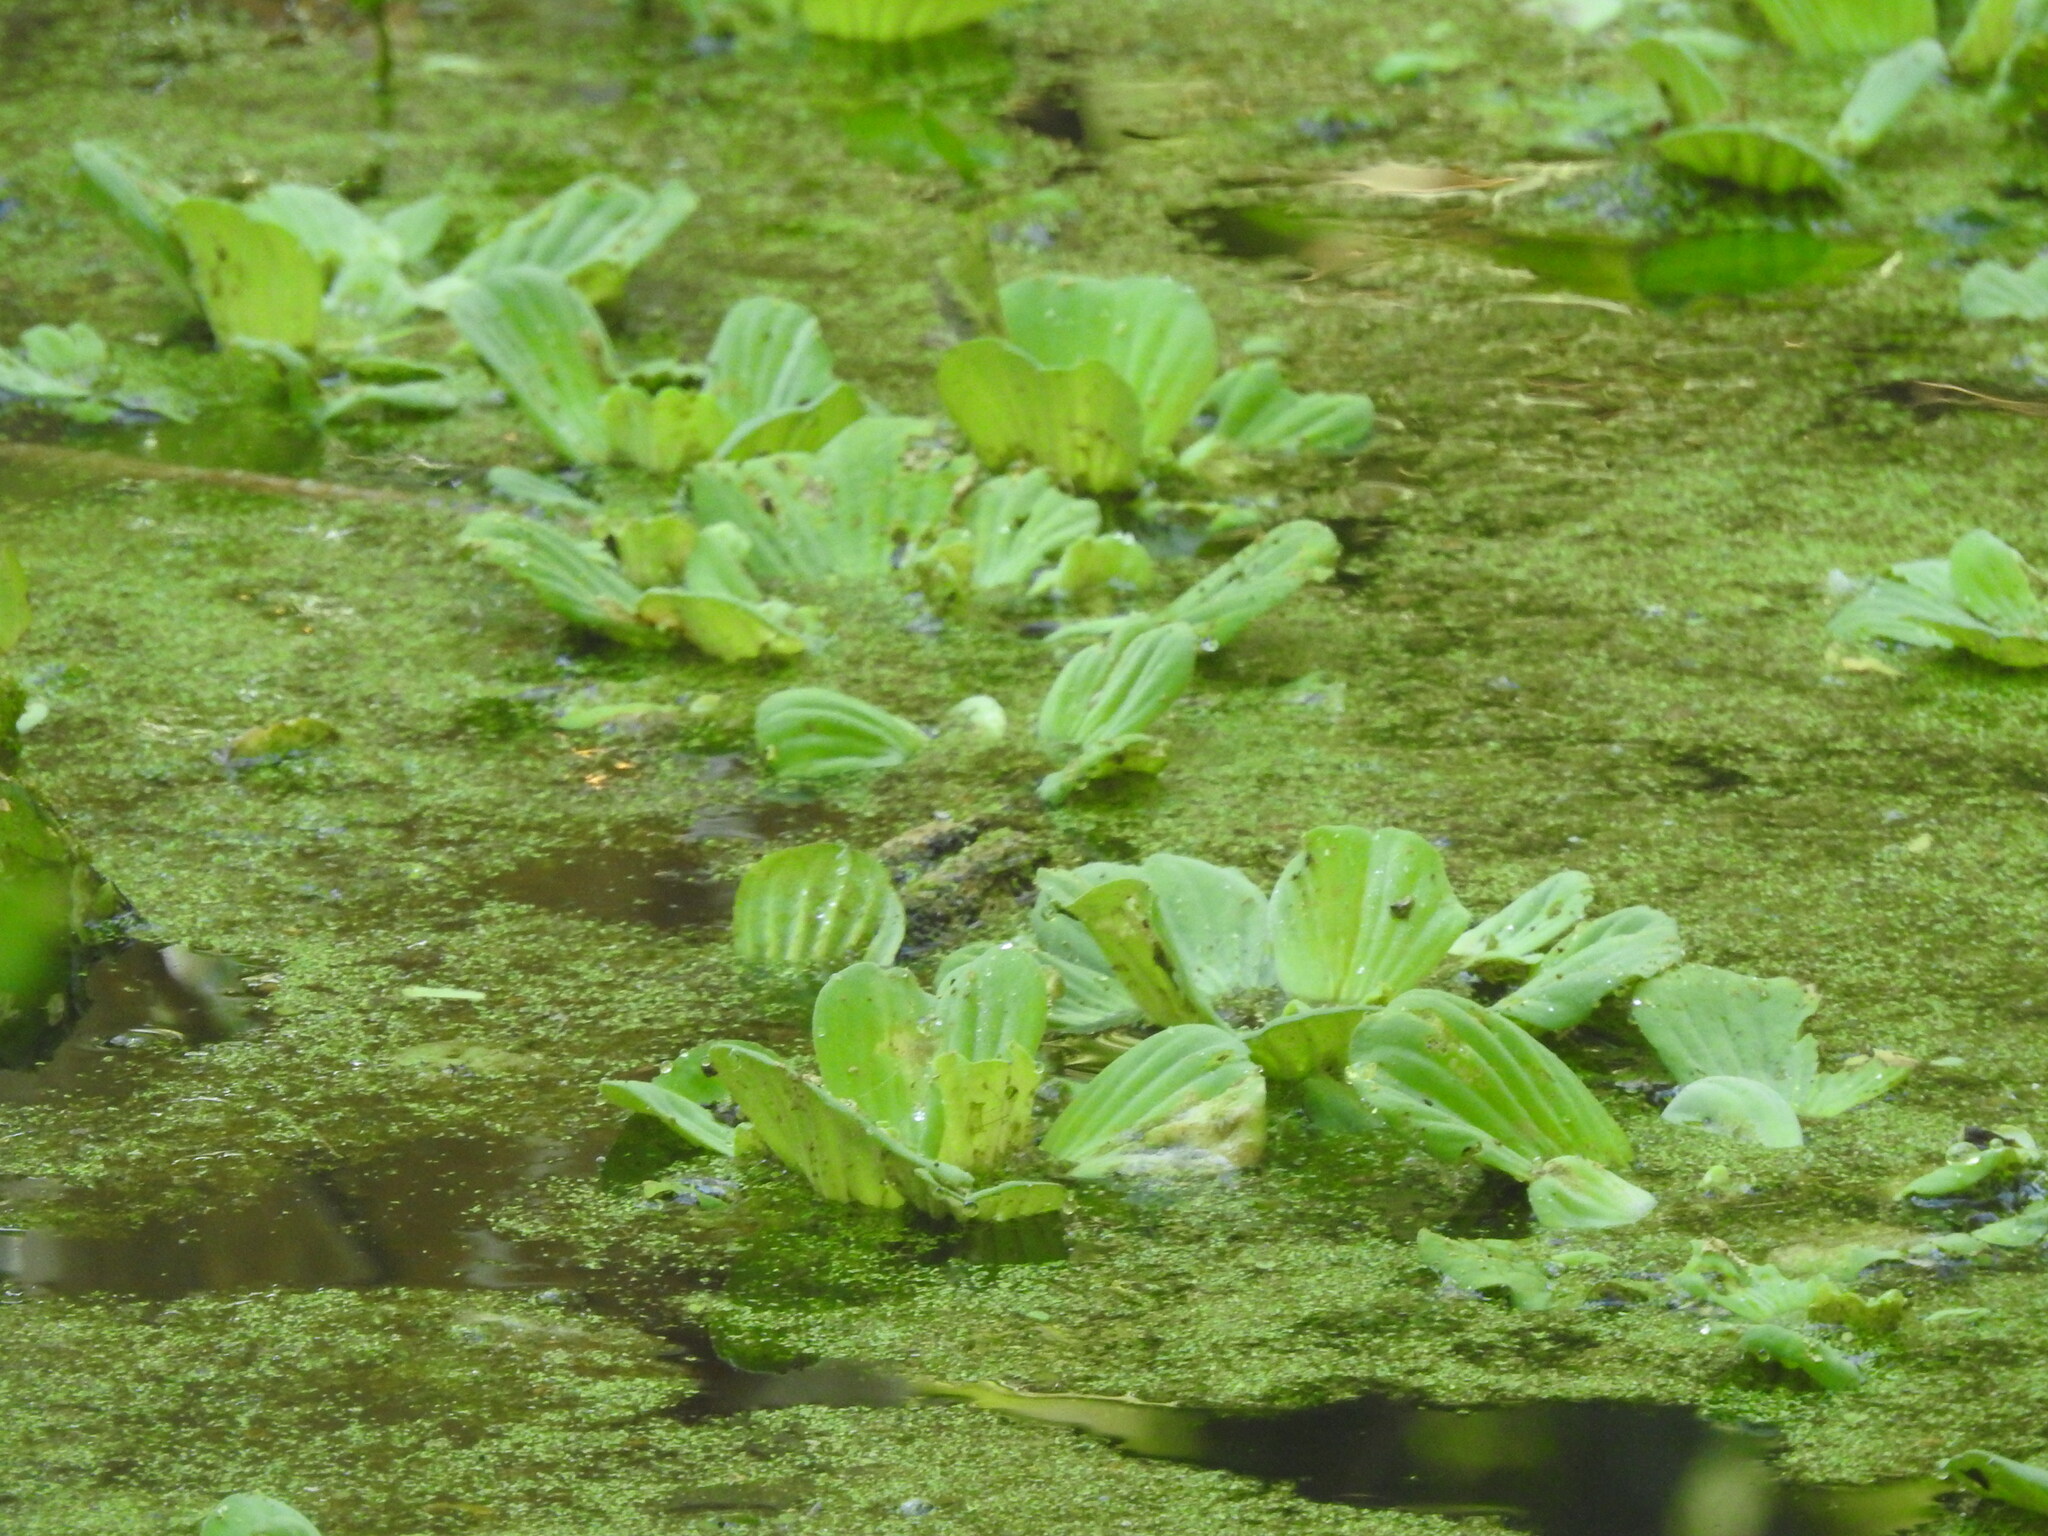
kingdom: Plantae
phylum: Tracheophyta
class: Liliopsida
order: Alismatales
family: Araceae
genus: Pistia
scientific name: Pistia stratiotes
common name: Water lettuce
